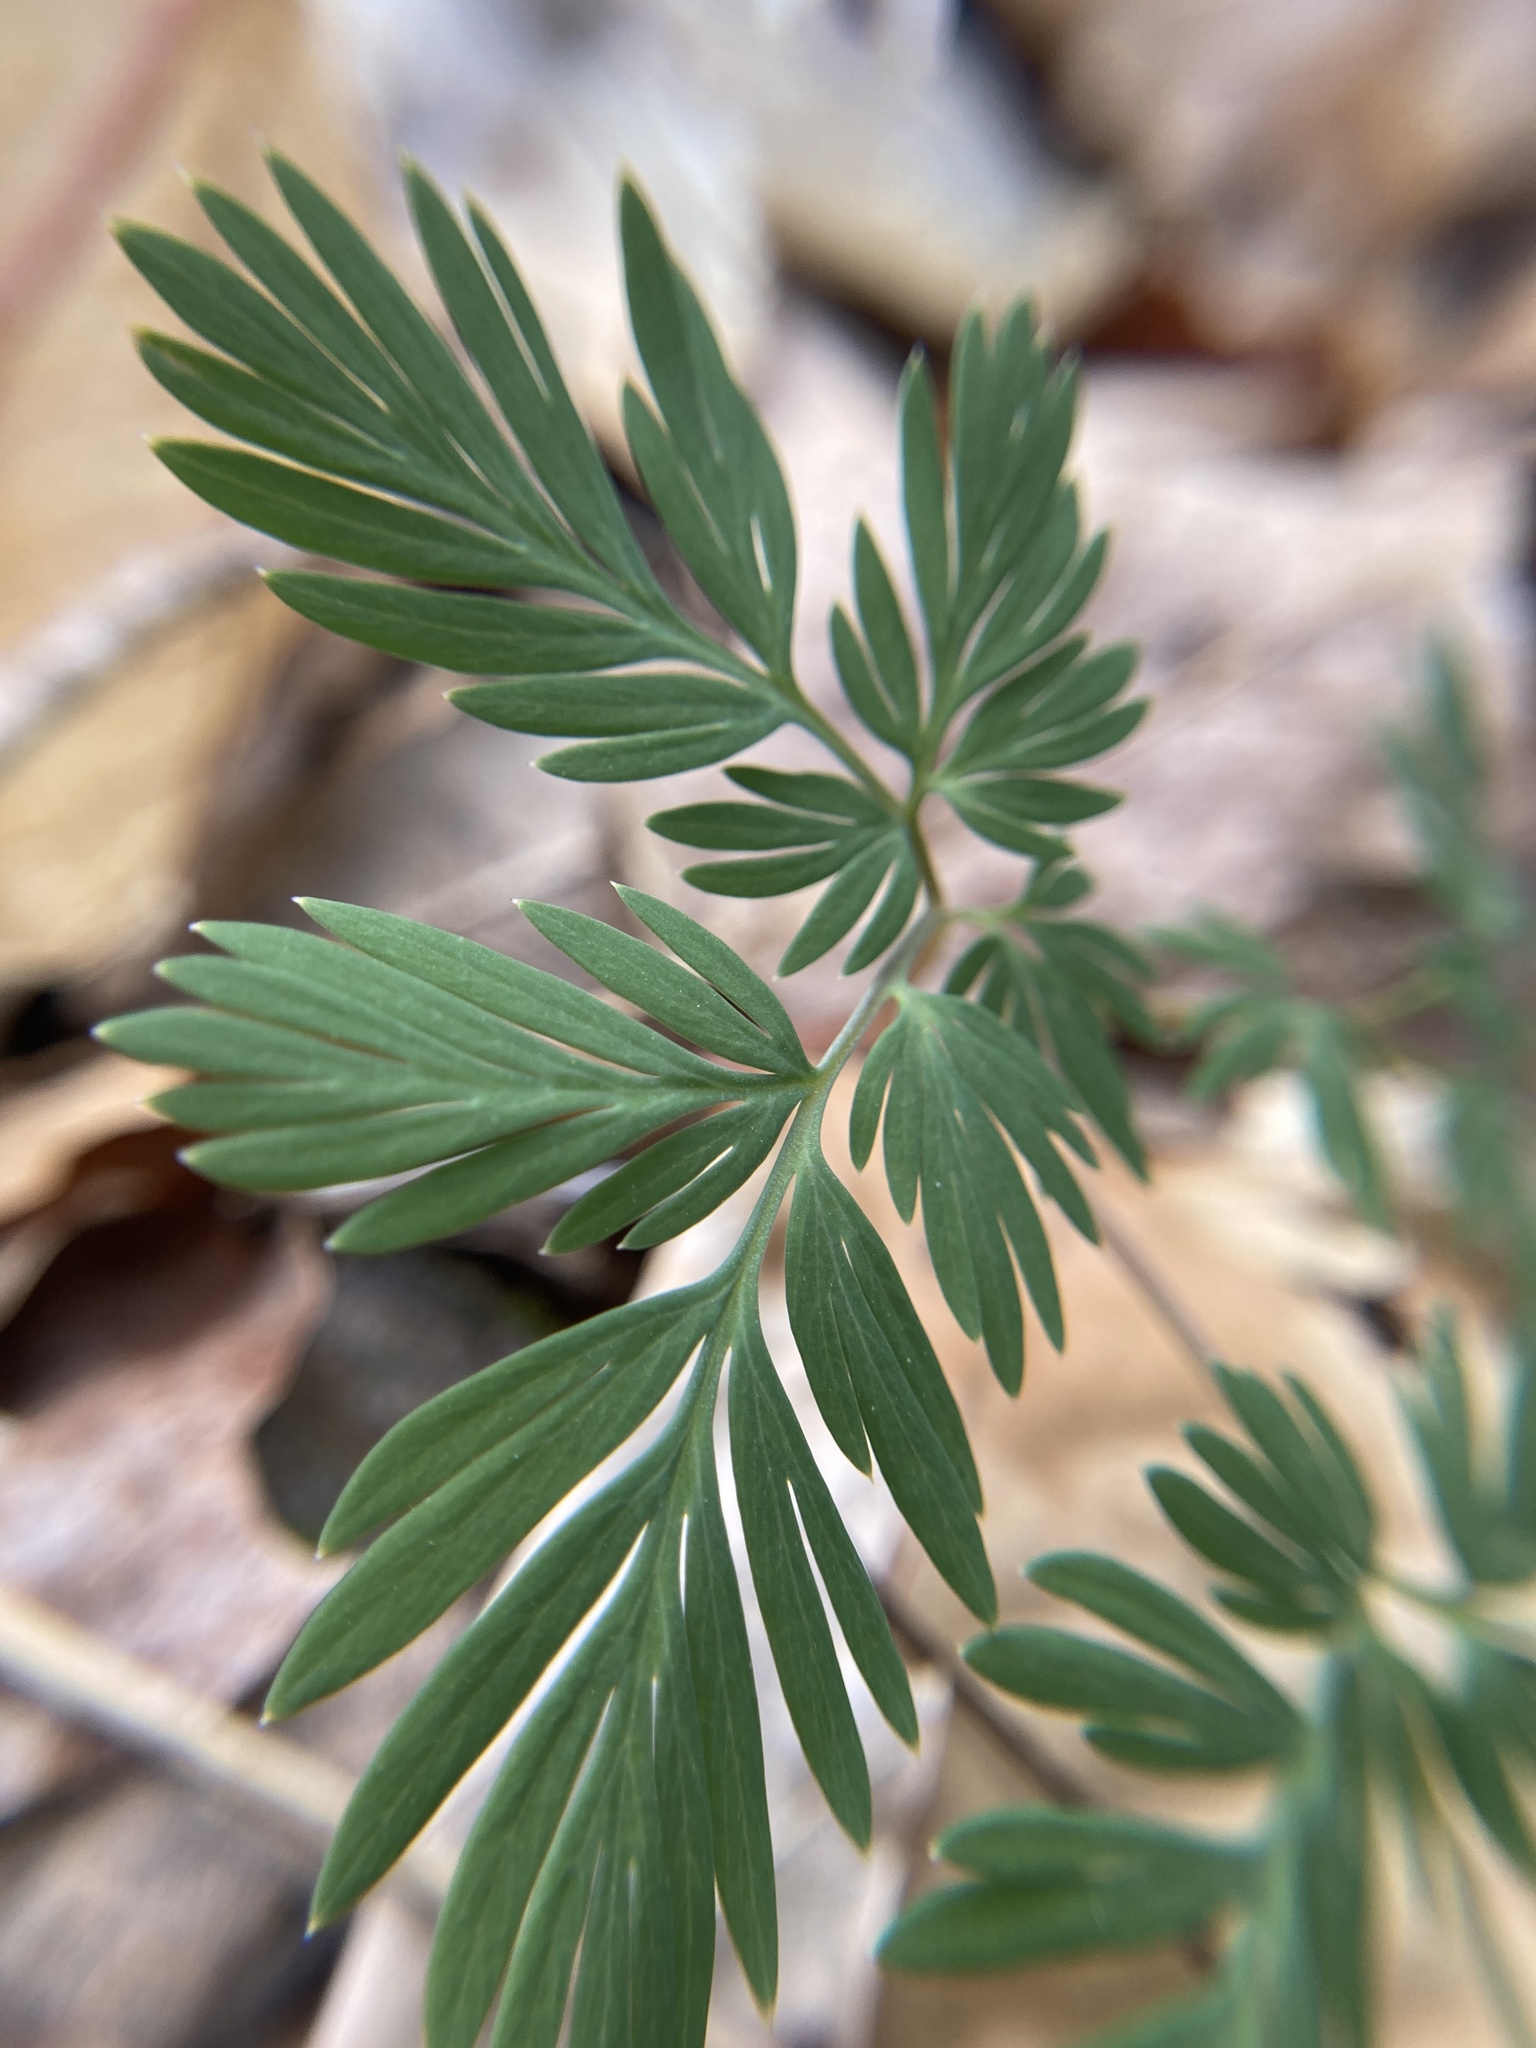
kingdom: Plantae
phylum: Tracheophyta
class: Magnoliopsida
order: Ranunculales
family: Papaveraceae
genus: Dicentra
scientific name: Dicentra canadensis
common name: Squirrel-corn
